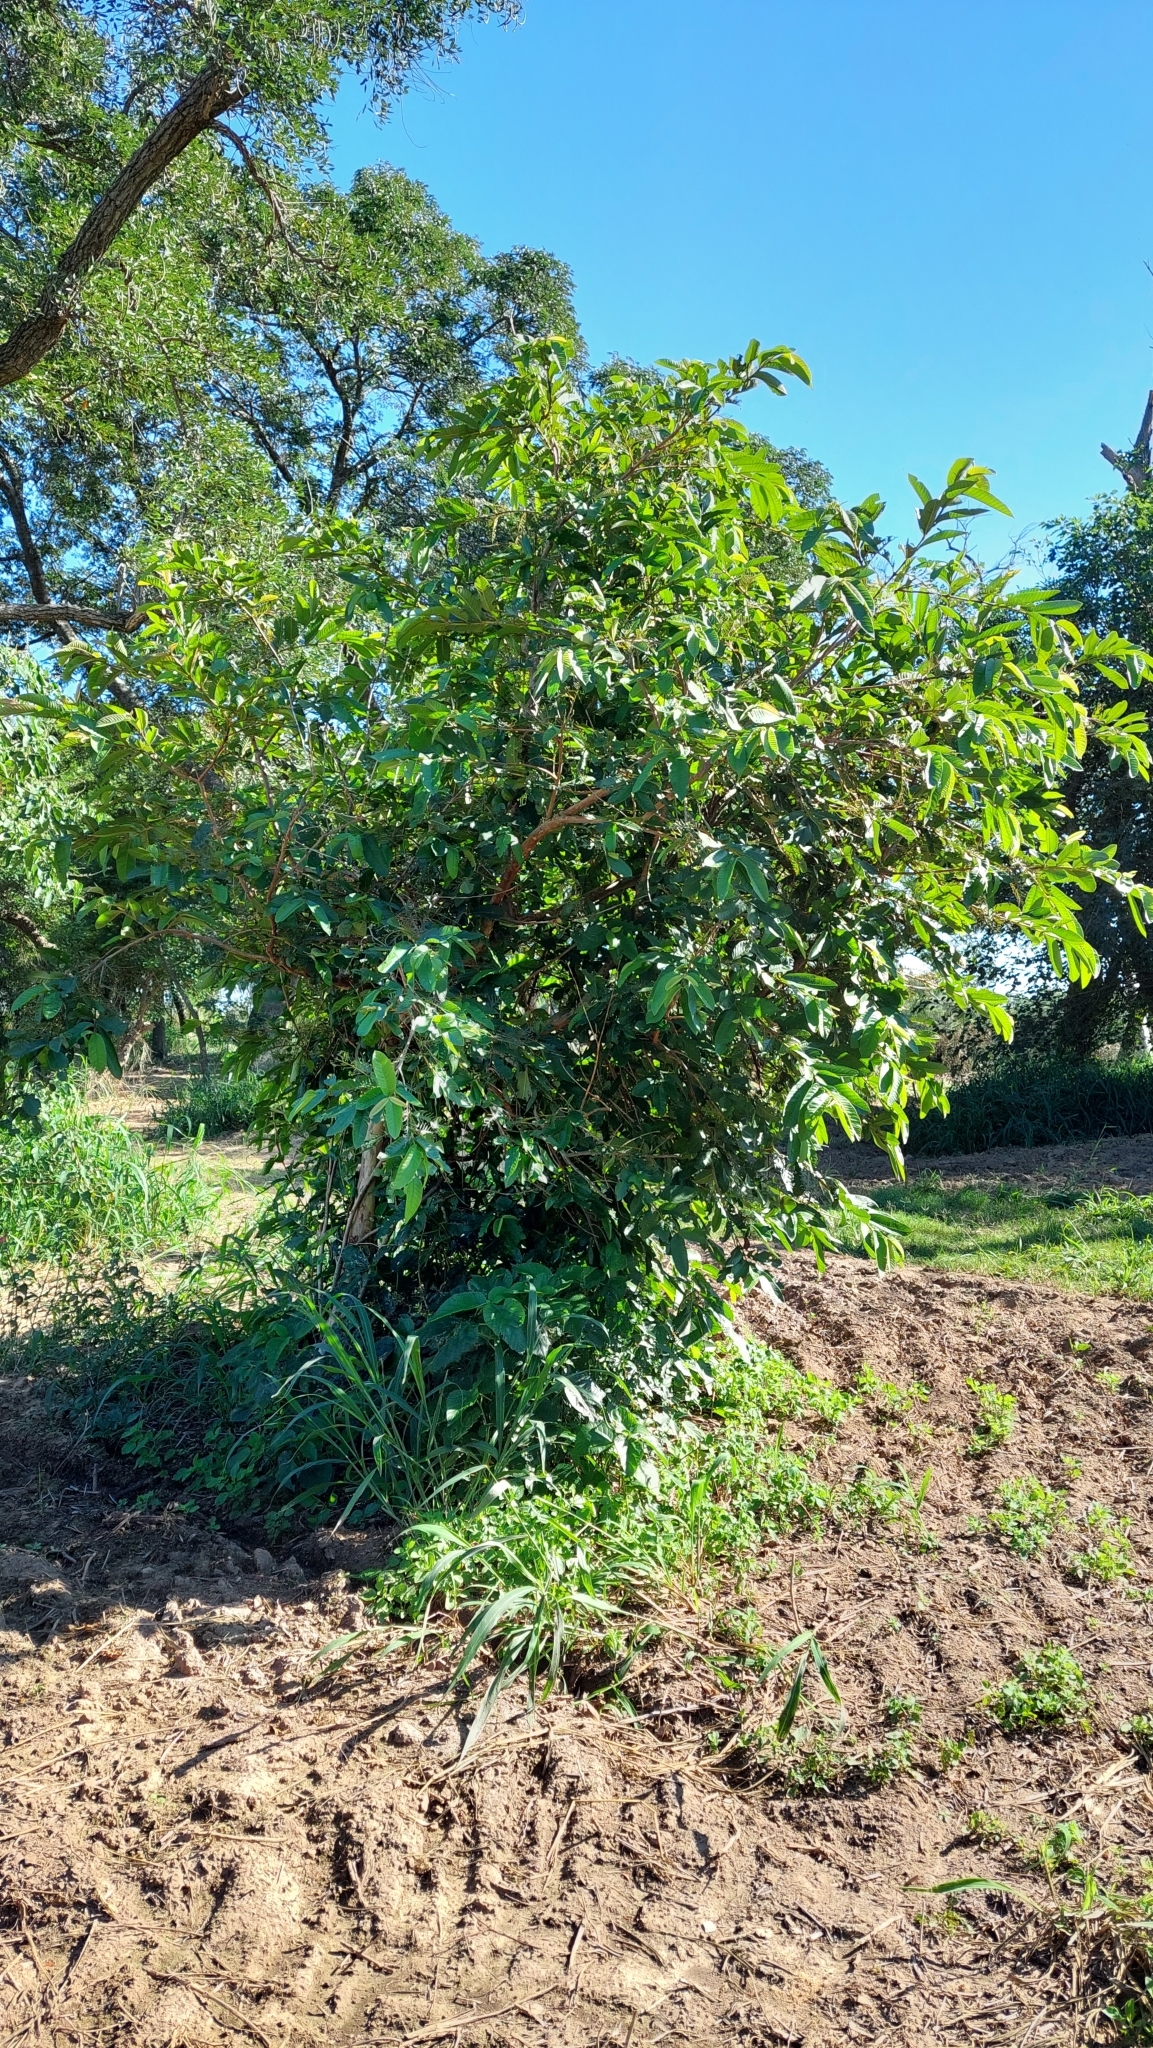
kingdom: Plantae
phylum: Tracheophyta
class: Magnoliopsida
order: Myrtales
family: Myrtaceae
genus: Psidium
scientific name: Psidium guajava
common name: Guava
